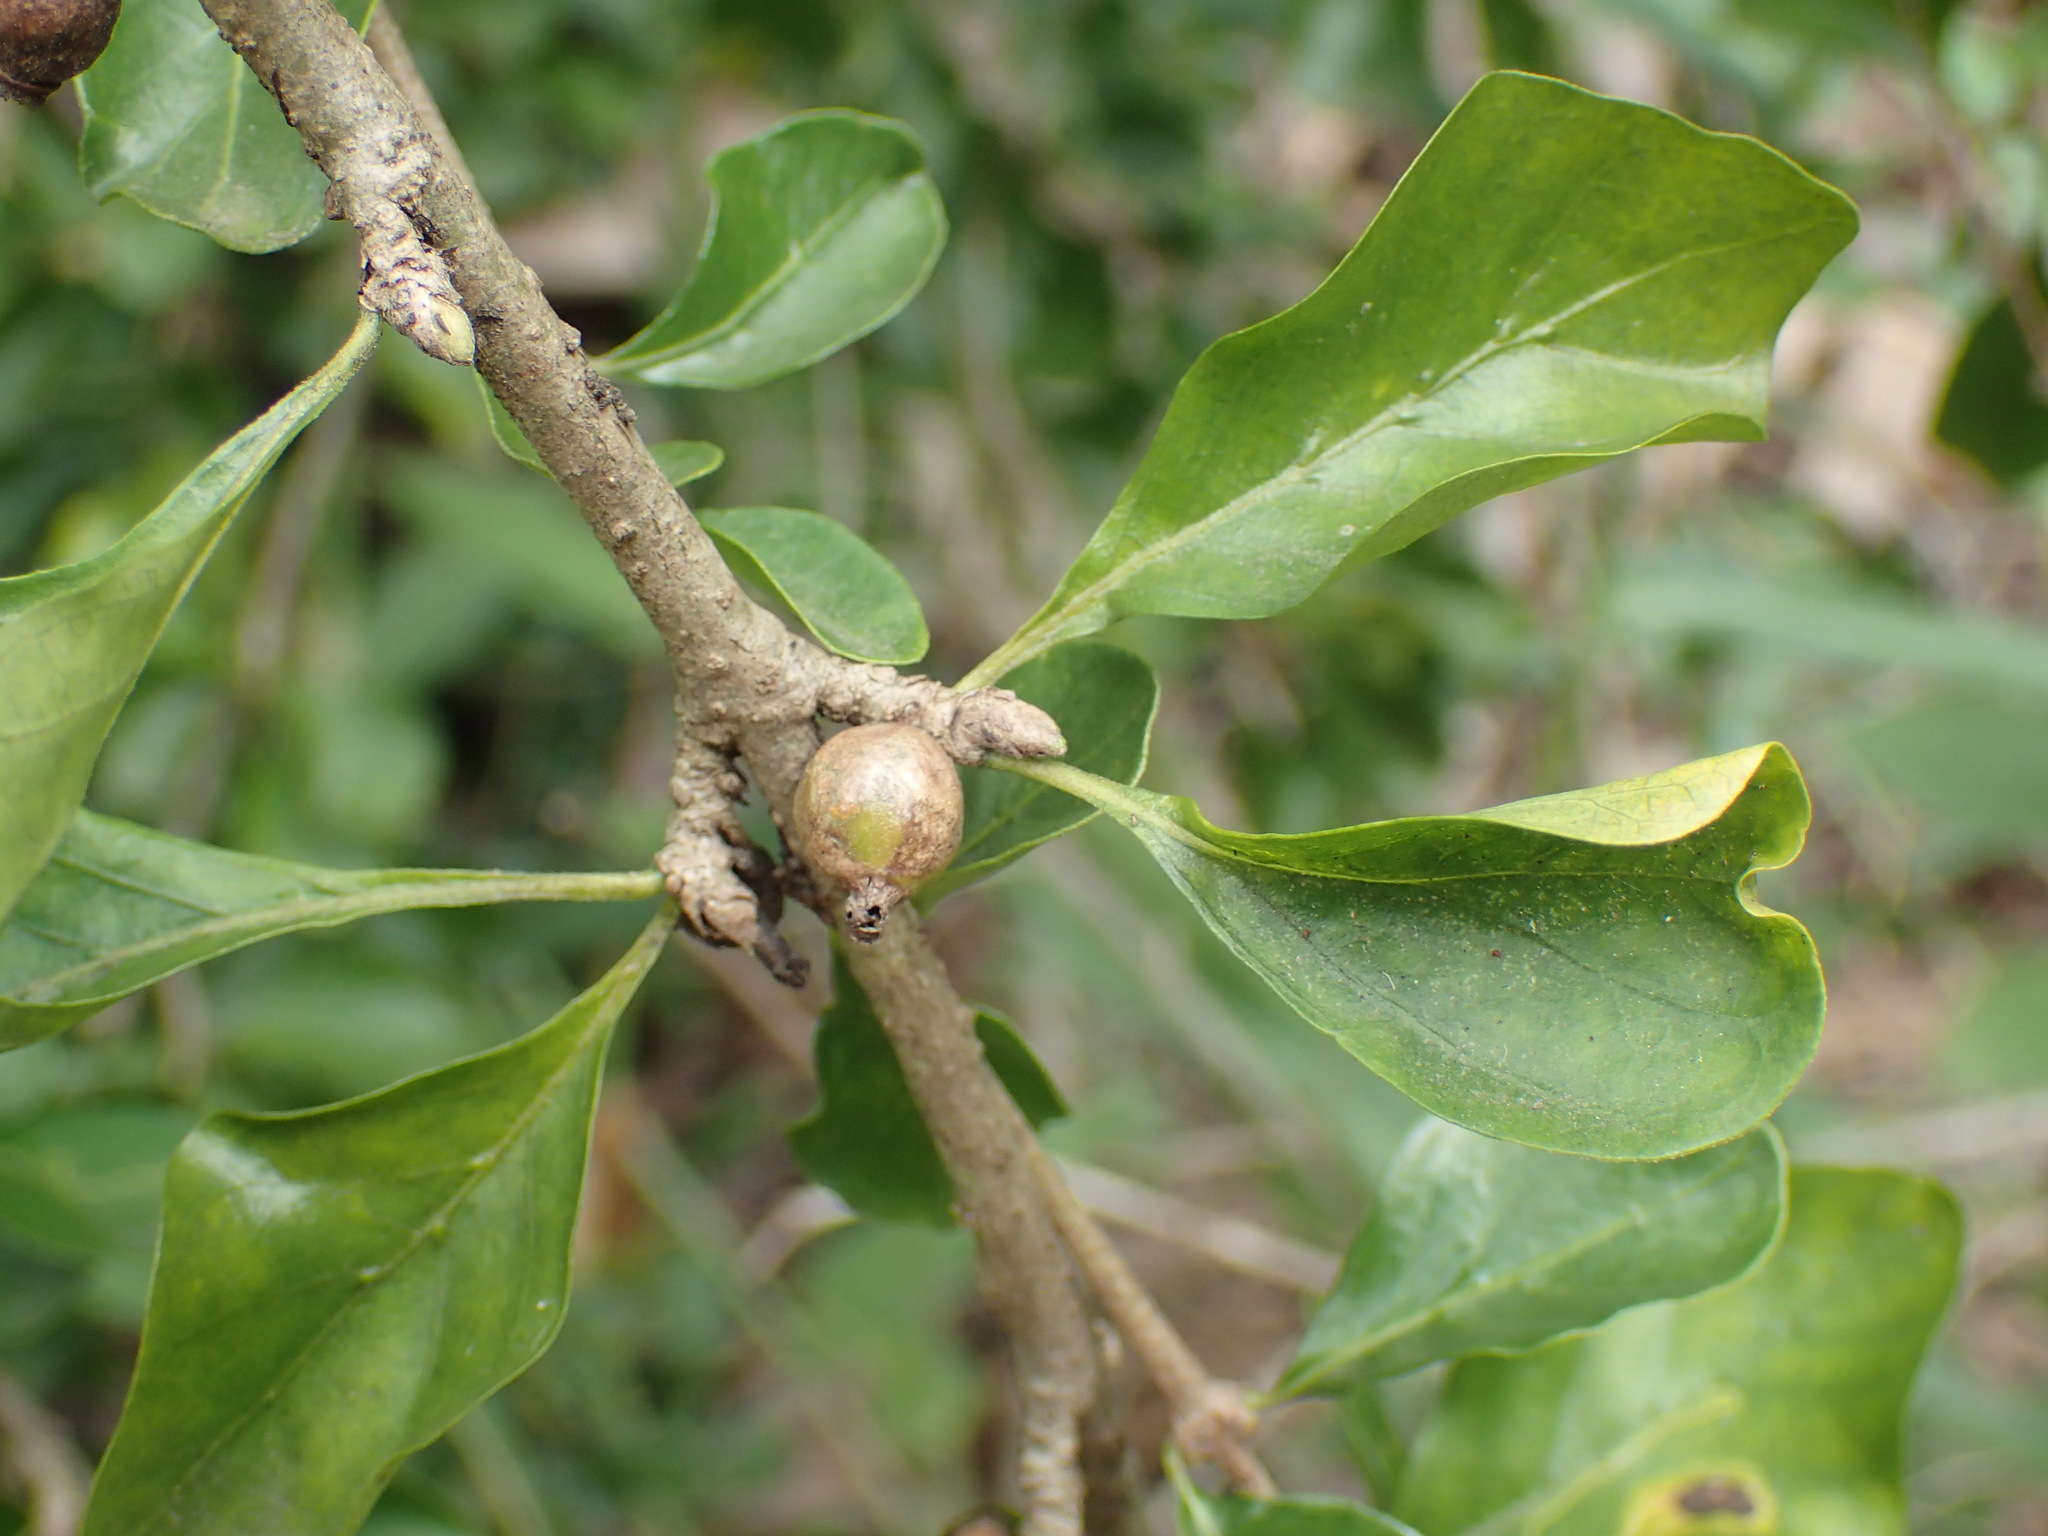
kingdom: Plantae
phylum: Tracheophyta
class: Magnoliopsida
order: Boraginales
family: Ehretiaceae
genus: Ehretia
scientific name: Ehretia rigida
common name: Cape lilac
